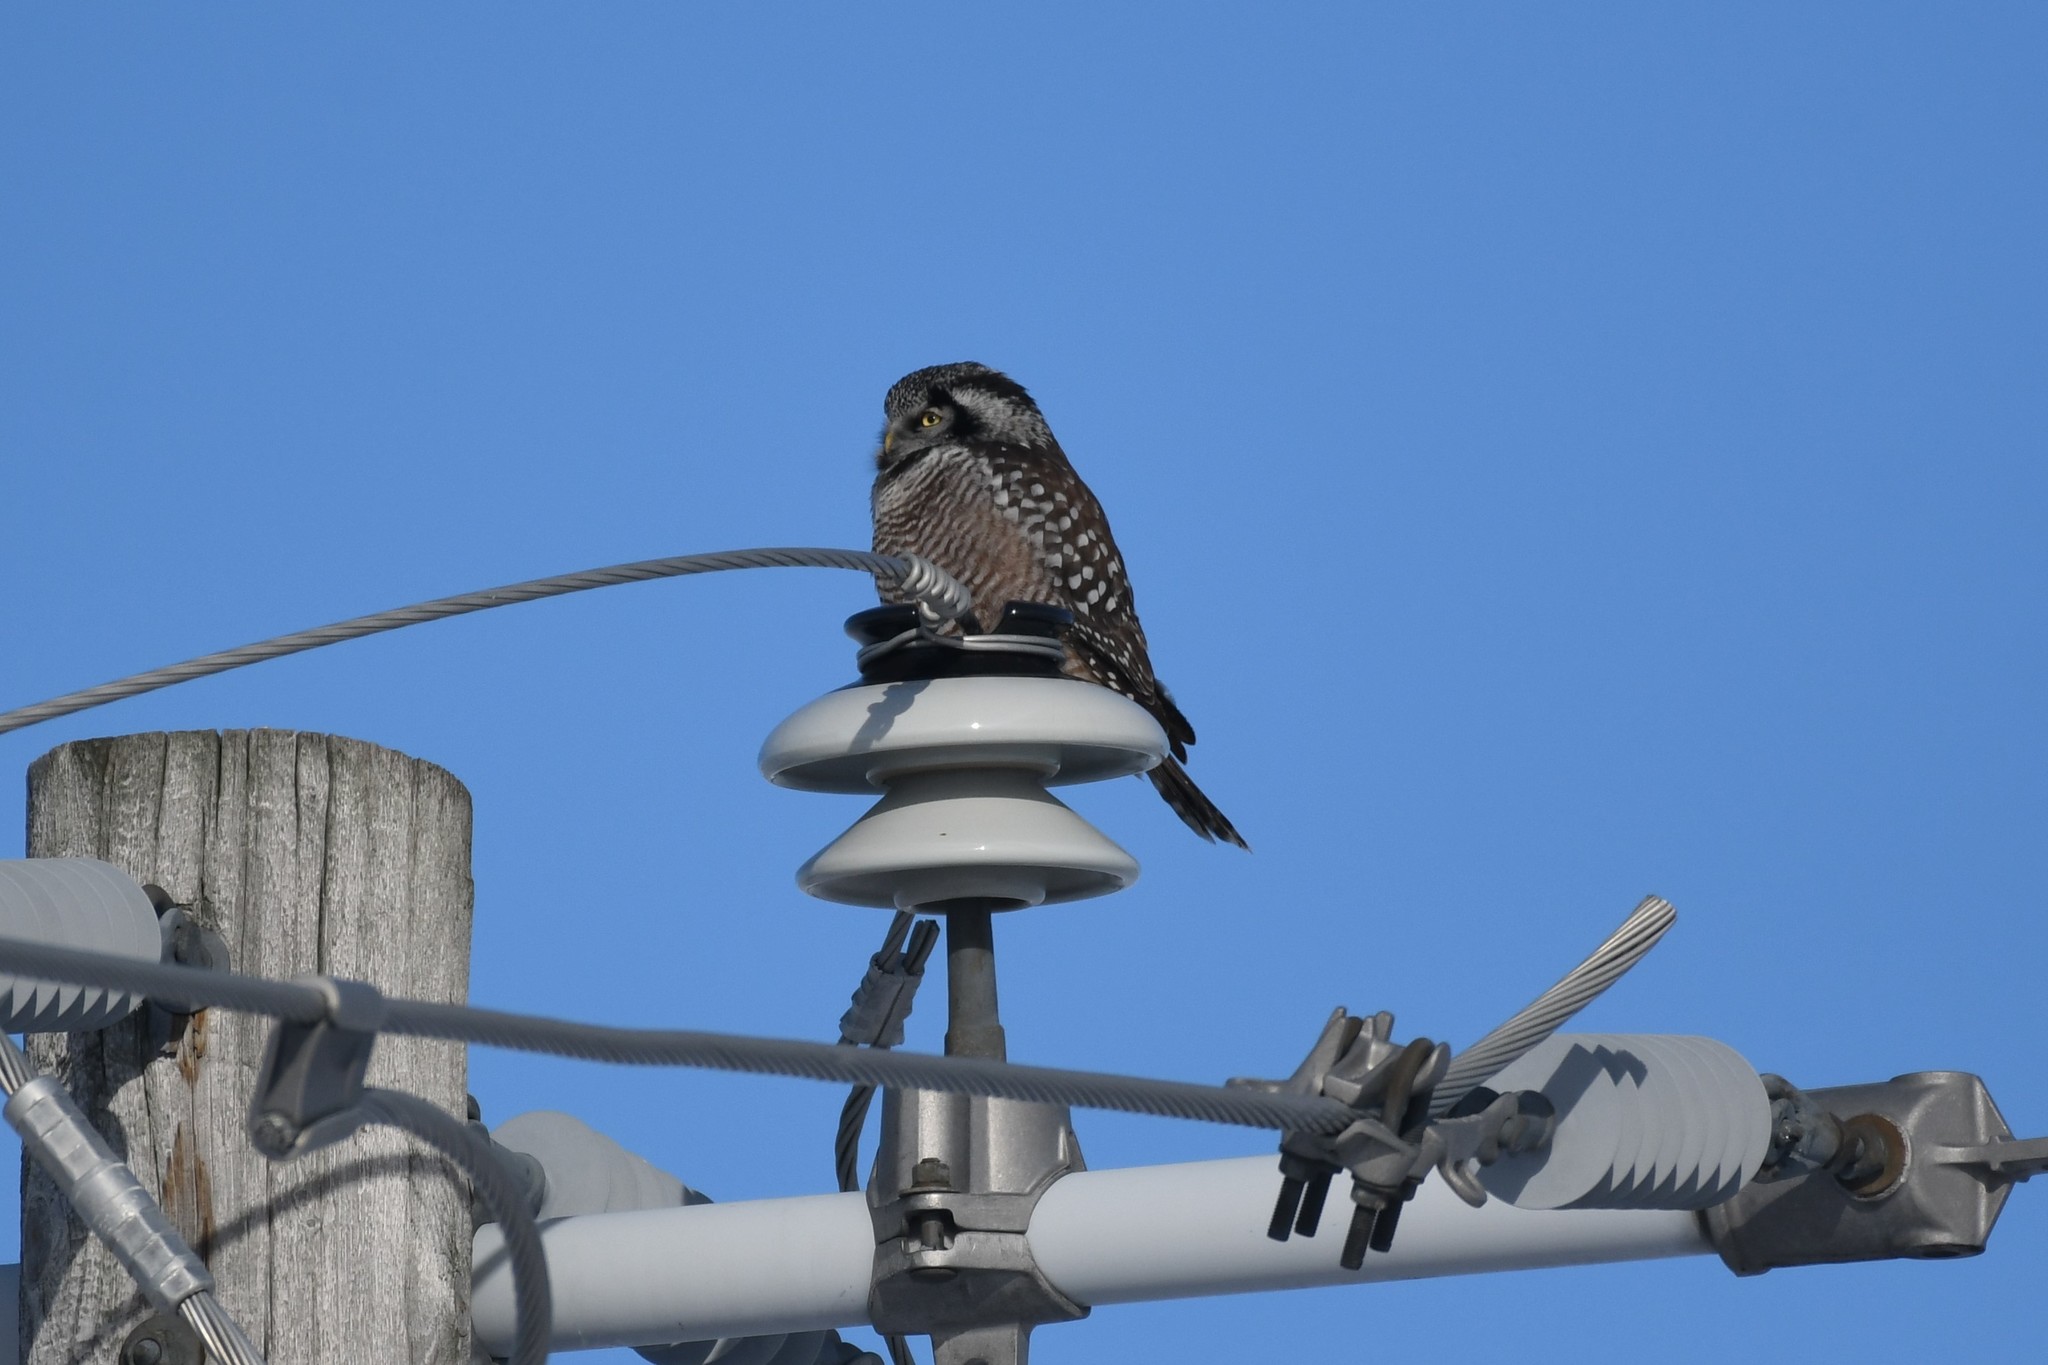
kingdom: Animalia
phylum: Chordata
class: Aves
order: Strigiformes
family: Strigidae
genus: Surnia
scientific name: Surnia ulula
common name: Northern hawk-owl
